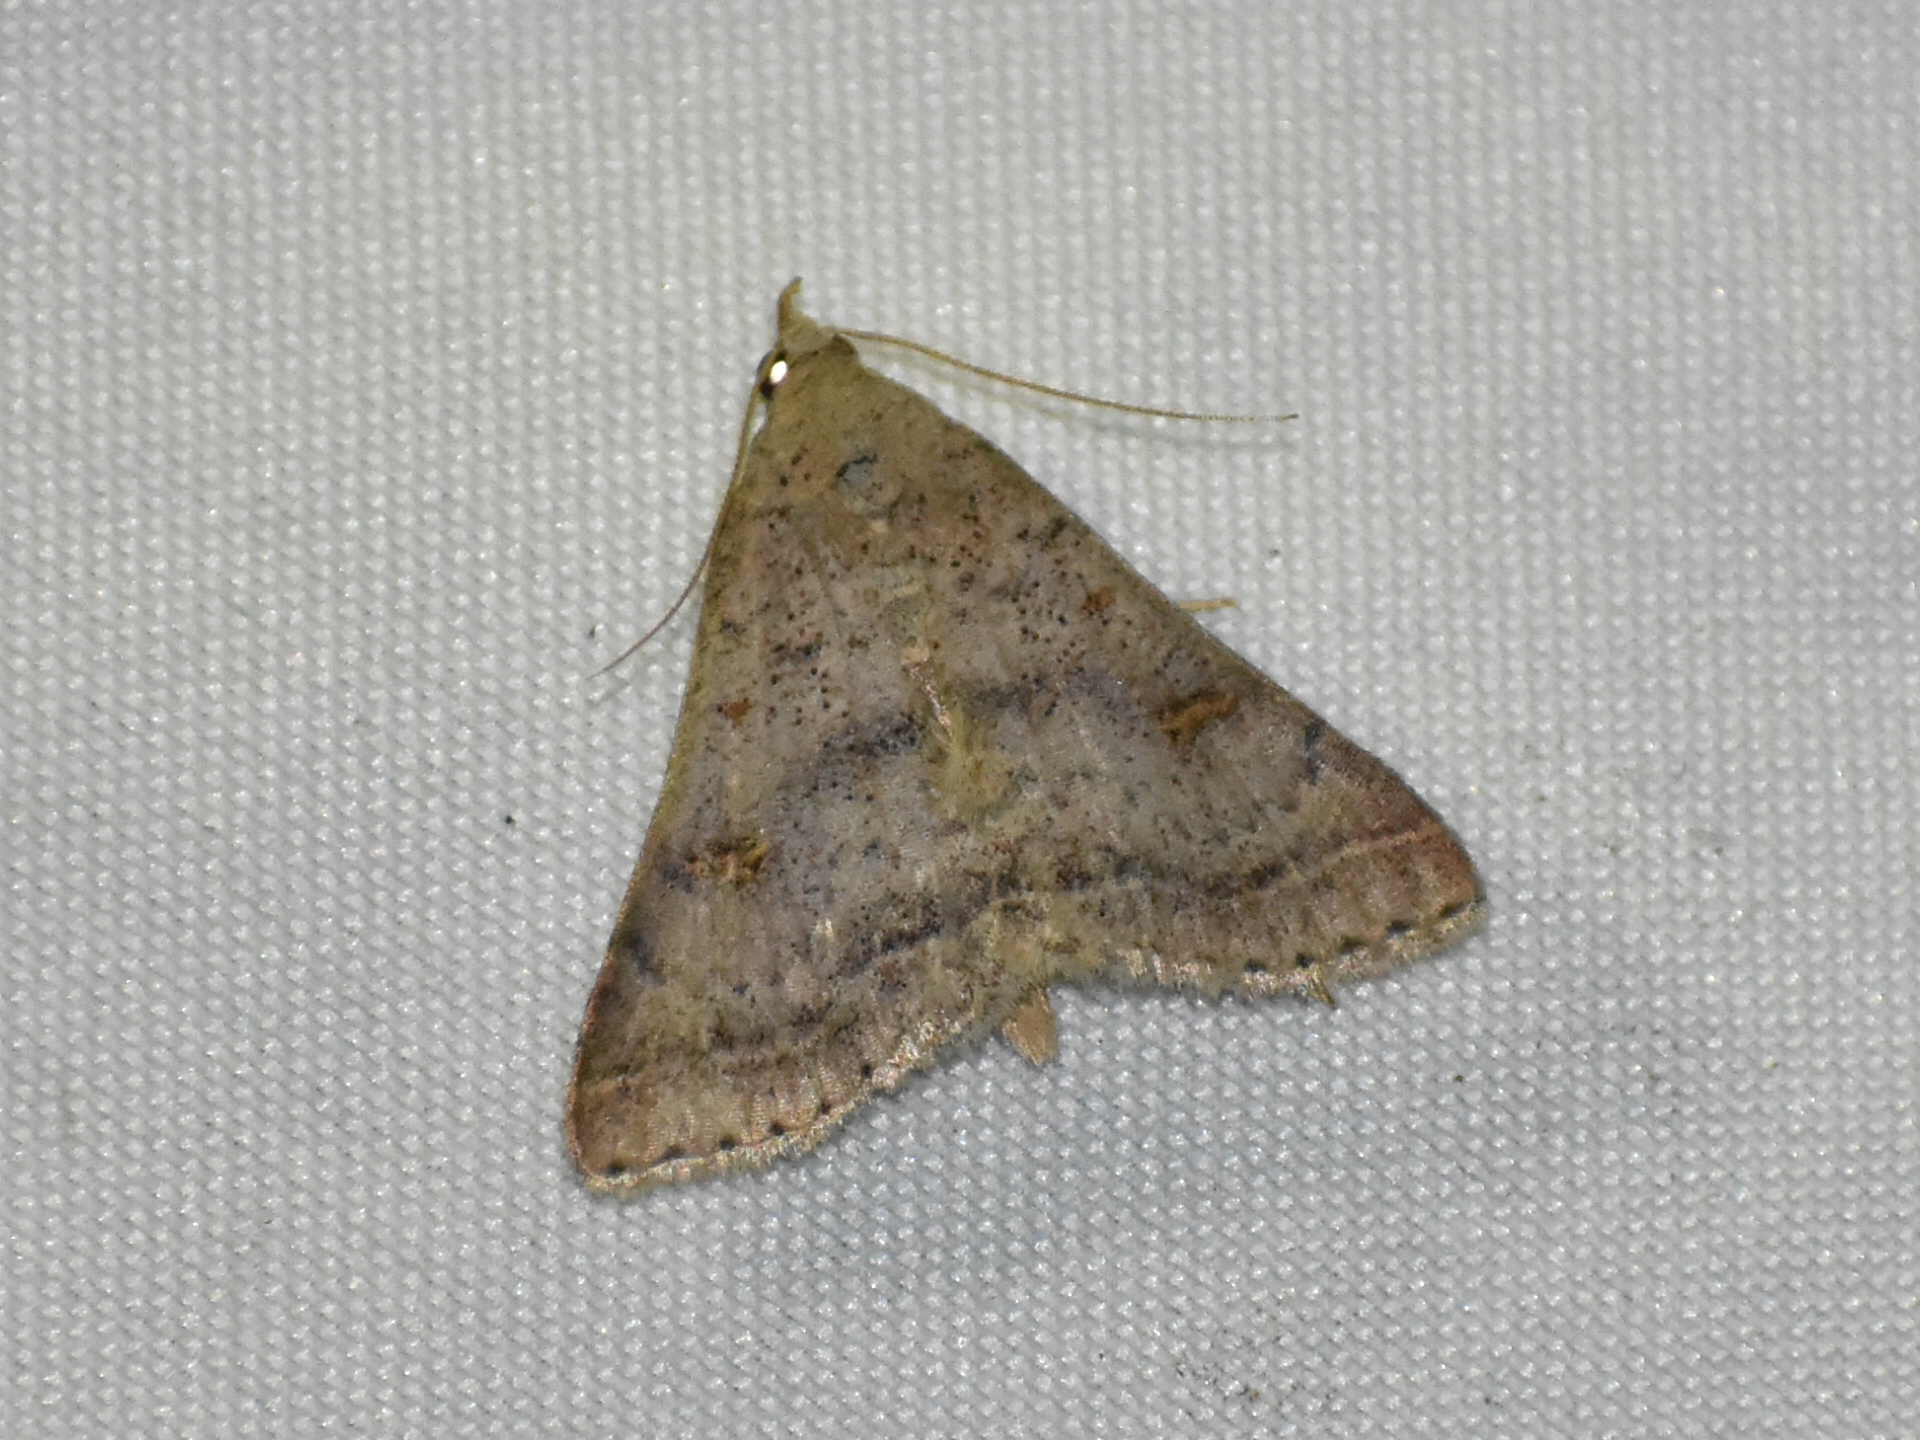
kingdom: Animalia
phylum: Arthropoda
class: Insecta
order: Lepidoptera
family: Erebidae
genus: Bleptina
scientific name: Bleptina caradrinalis
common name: Bent-winged owlet
